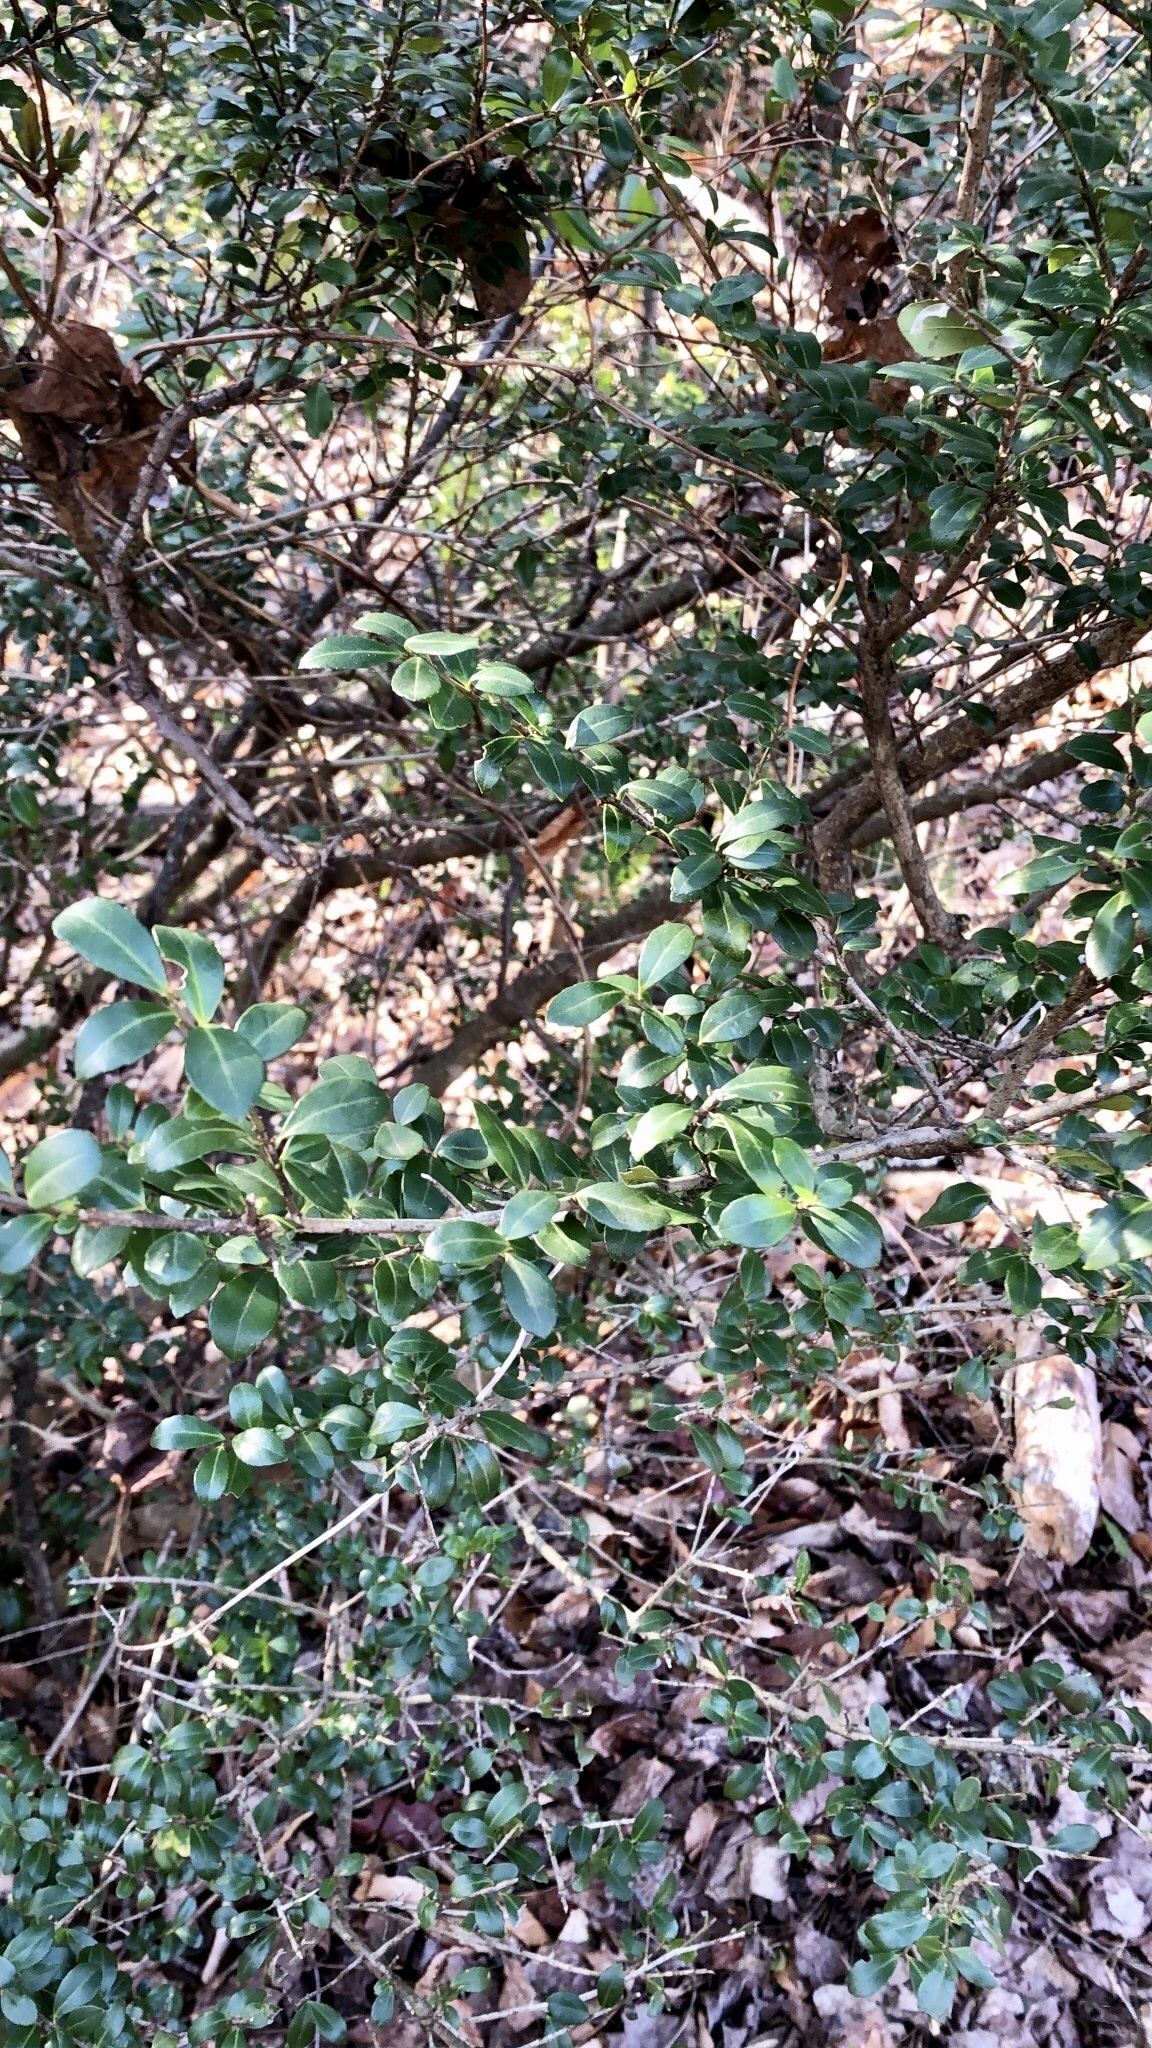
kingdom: Plantae
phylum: Tracheophyta
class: Magnoliopsida
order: Aquifoliales
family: Aquifoliaceae
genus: Ilex
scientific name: Ilex crenata
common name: Japanese holly
